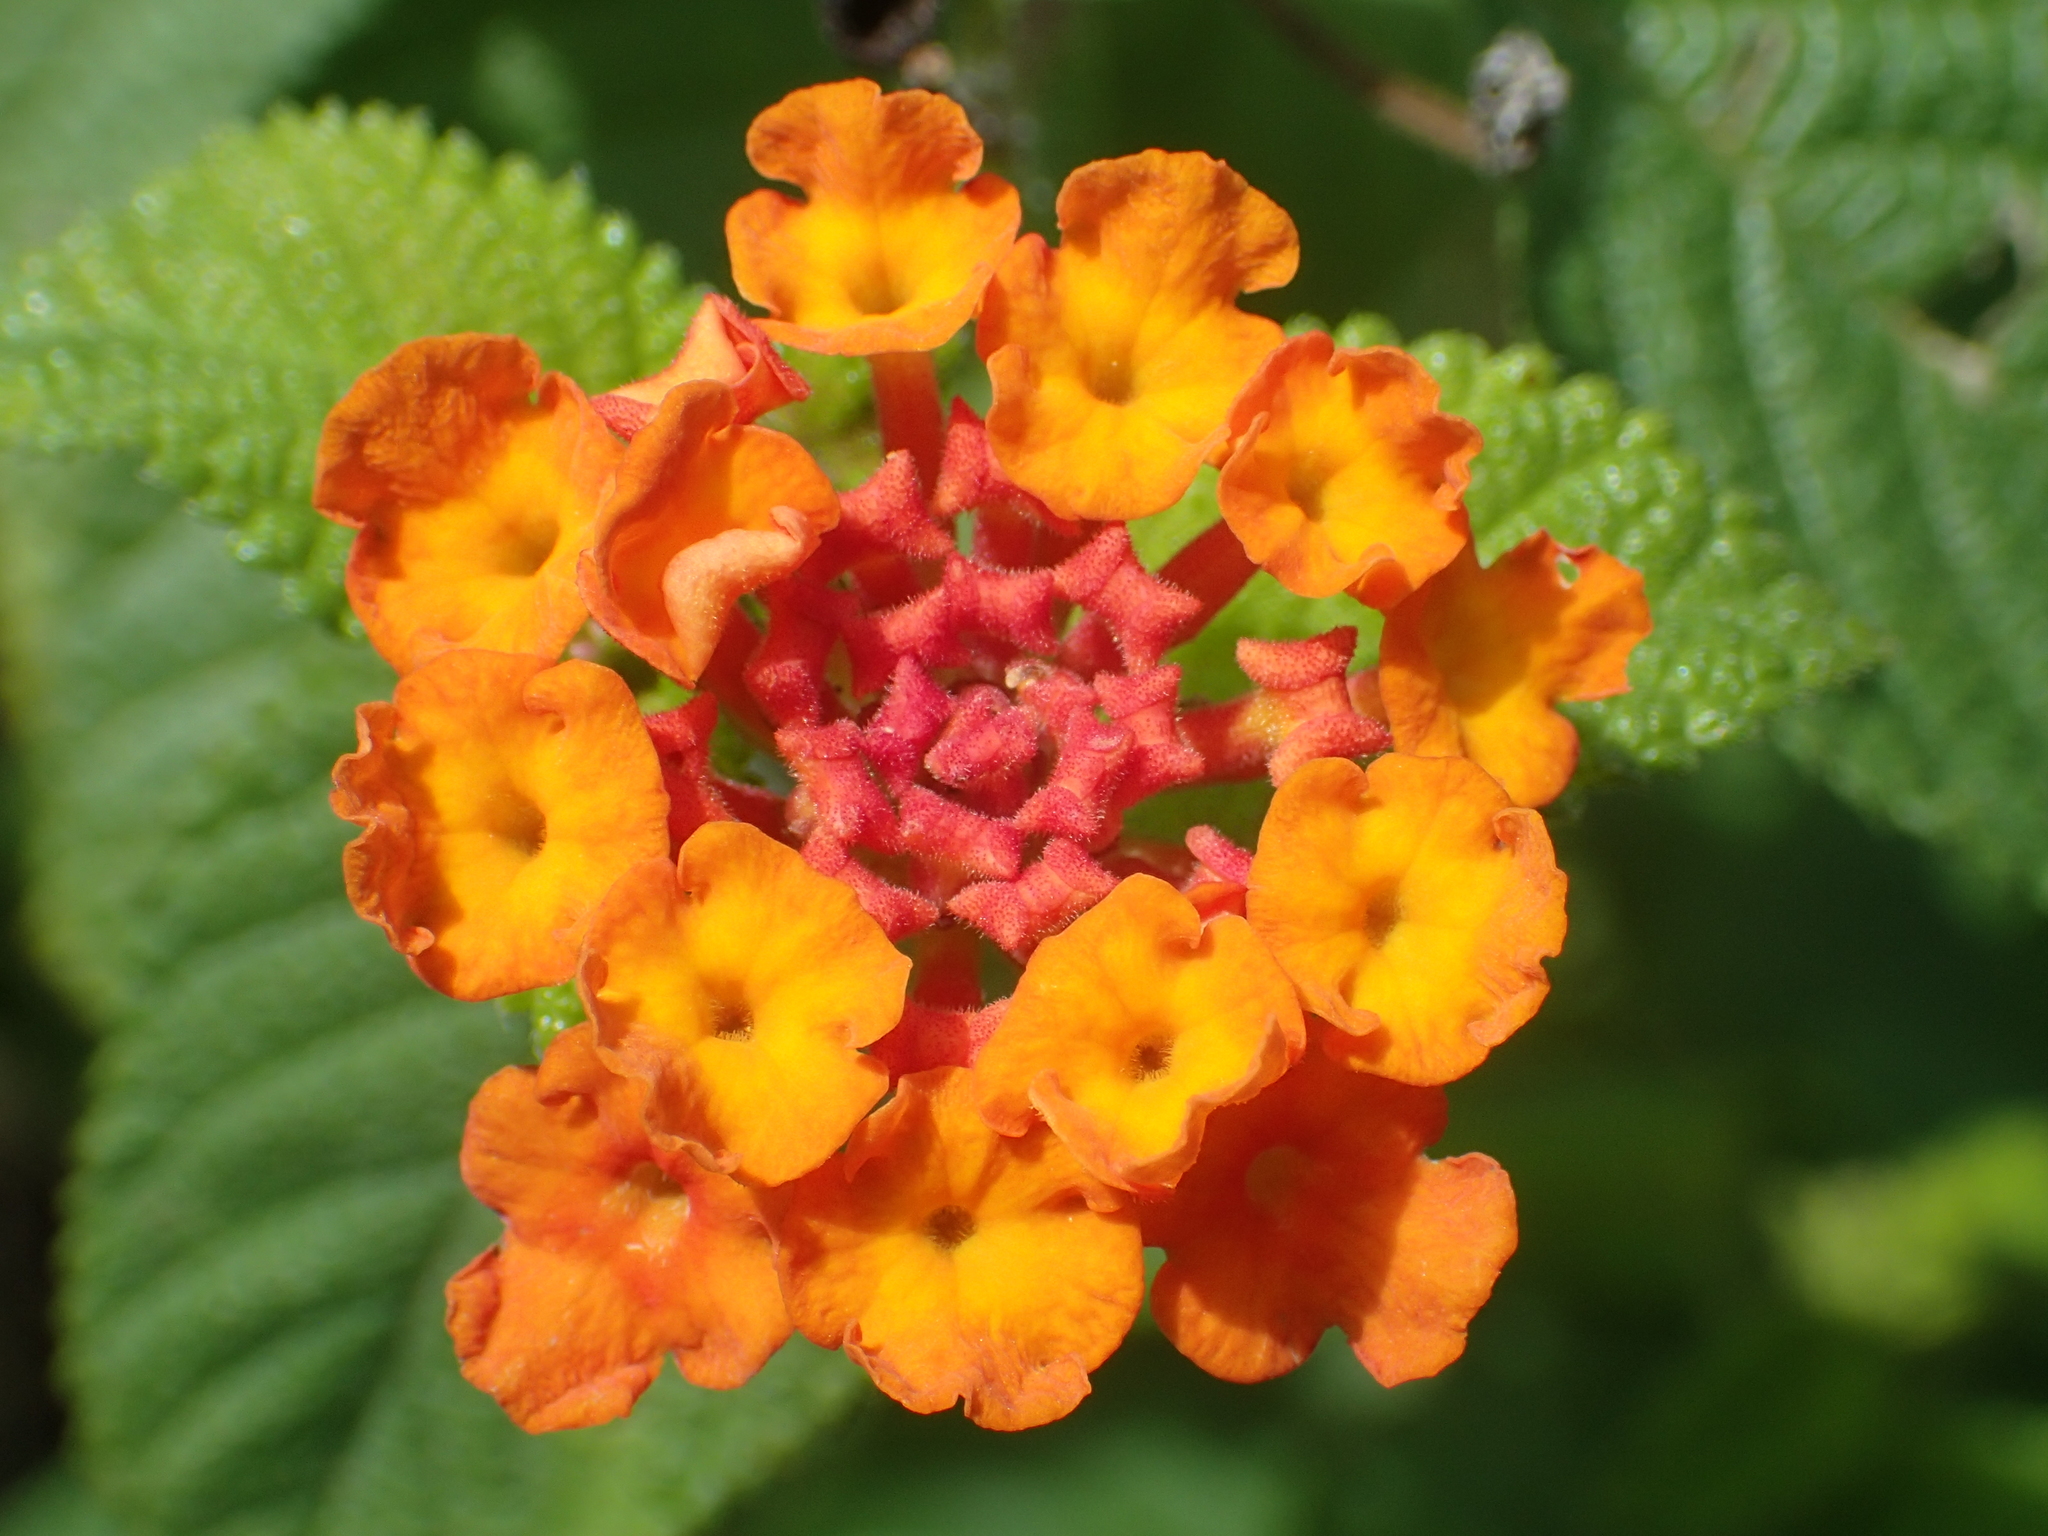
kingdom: Plantae
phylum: Tracheophyta
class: Magnoliopsida
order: Lamiales
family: Verbenaceae
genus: Lantana
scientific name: Lantana camara
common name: Lantana
